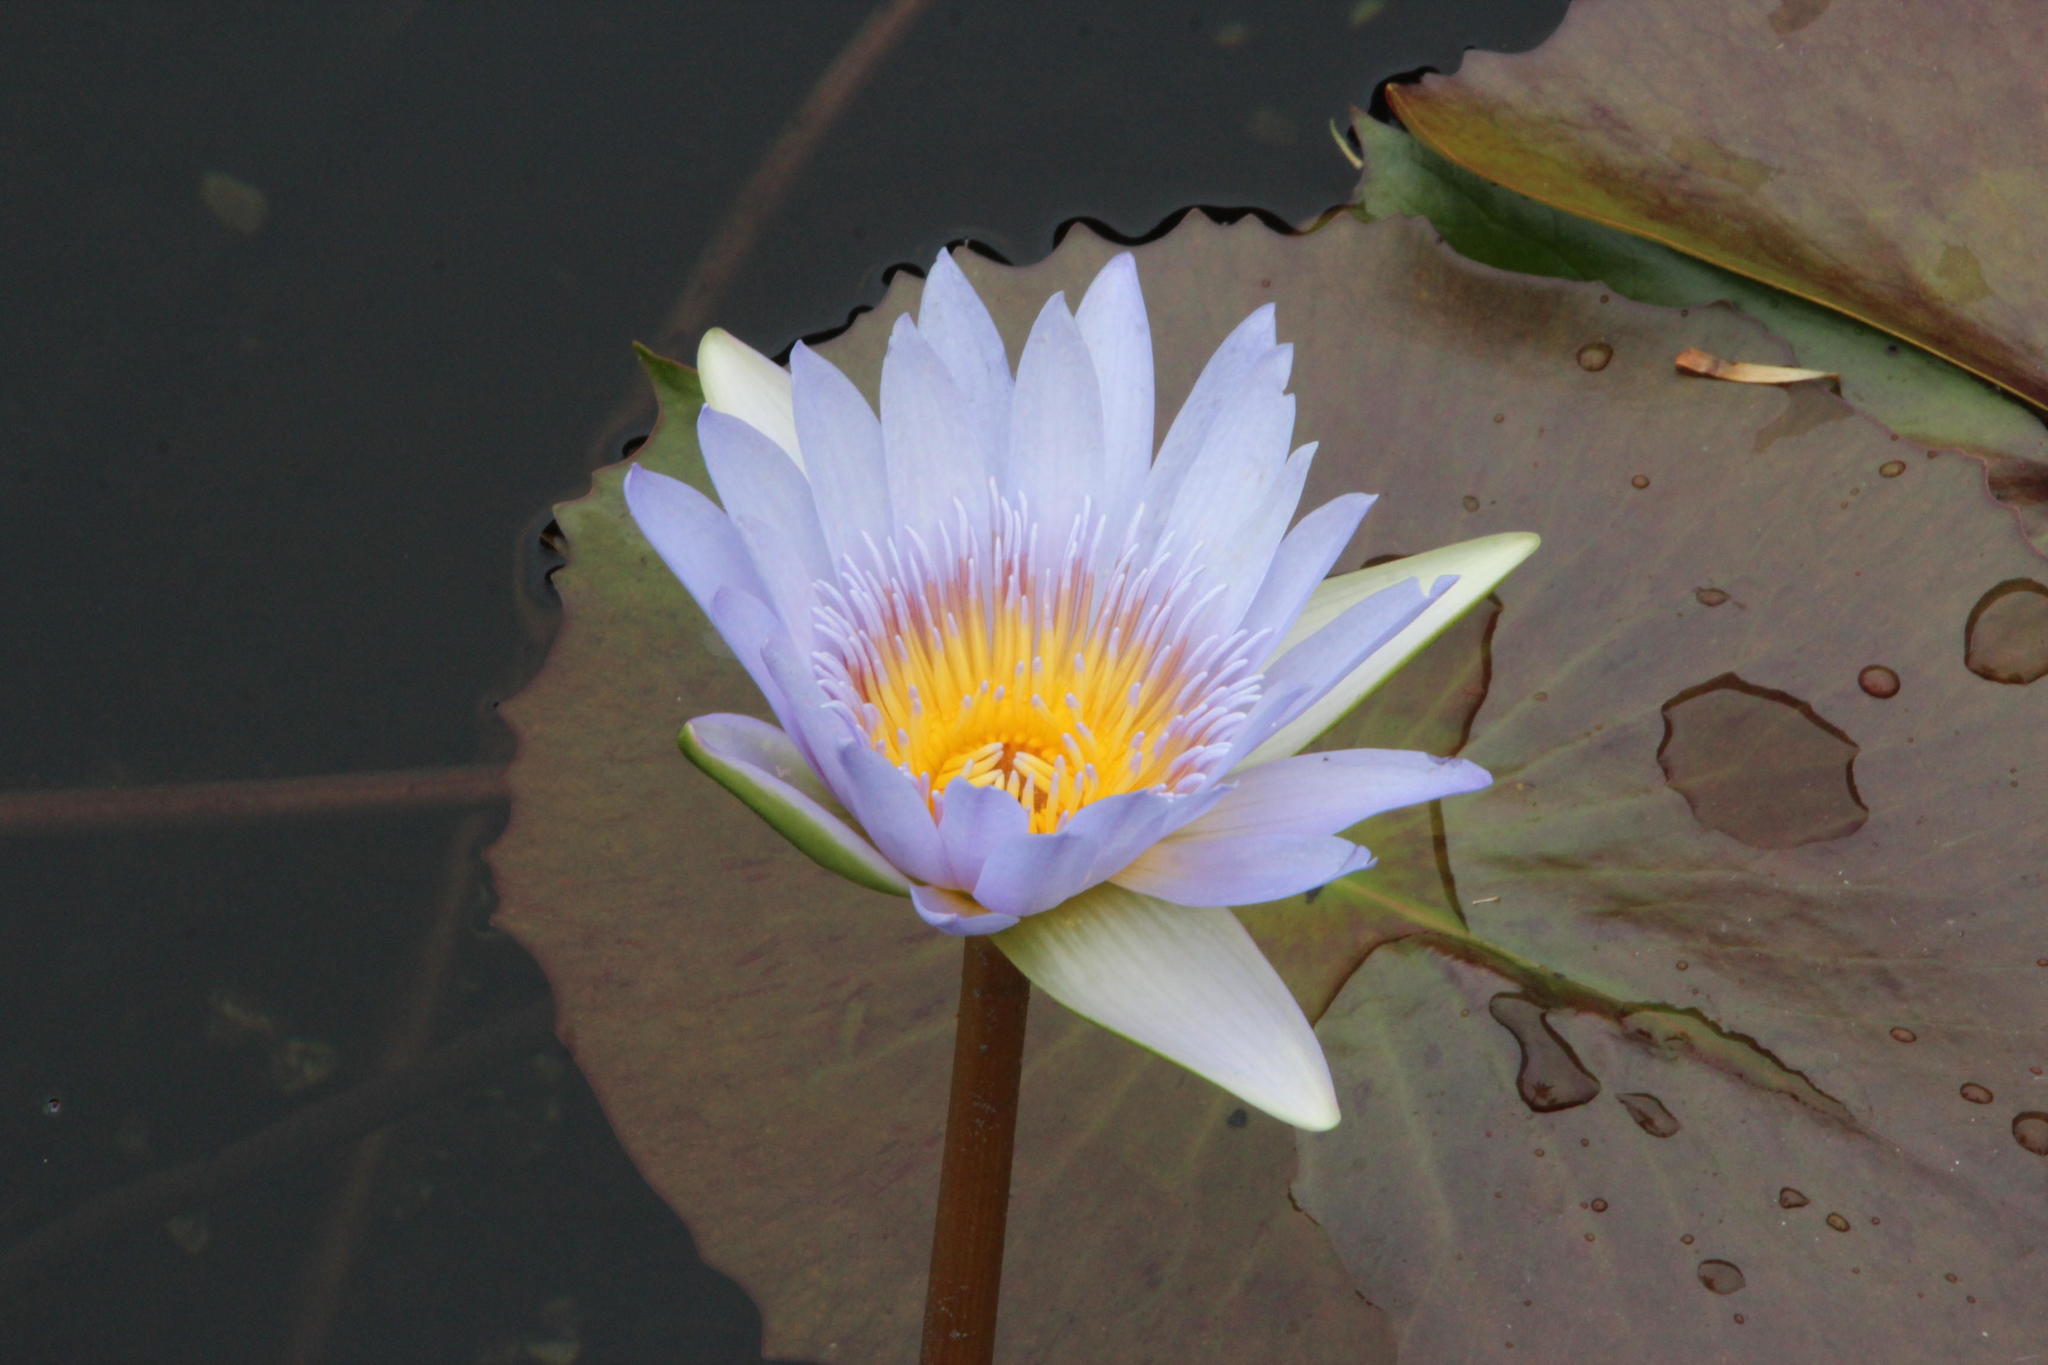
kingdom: Plantae
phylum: Tracheophyta
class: Magnoliopsida
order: Nymphaeales
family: Nymphaeaceae
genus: Nymphaea
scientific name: Nymphaea nouchali
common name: Blue lotus
